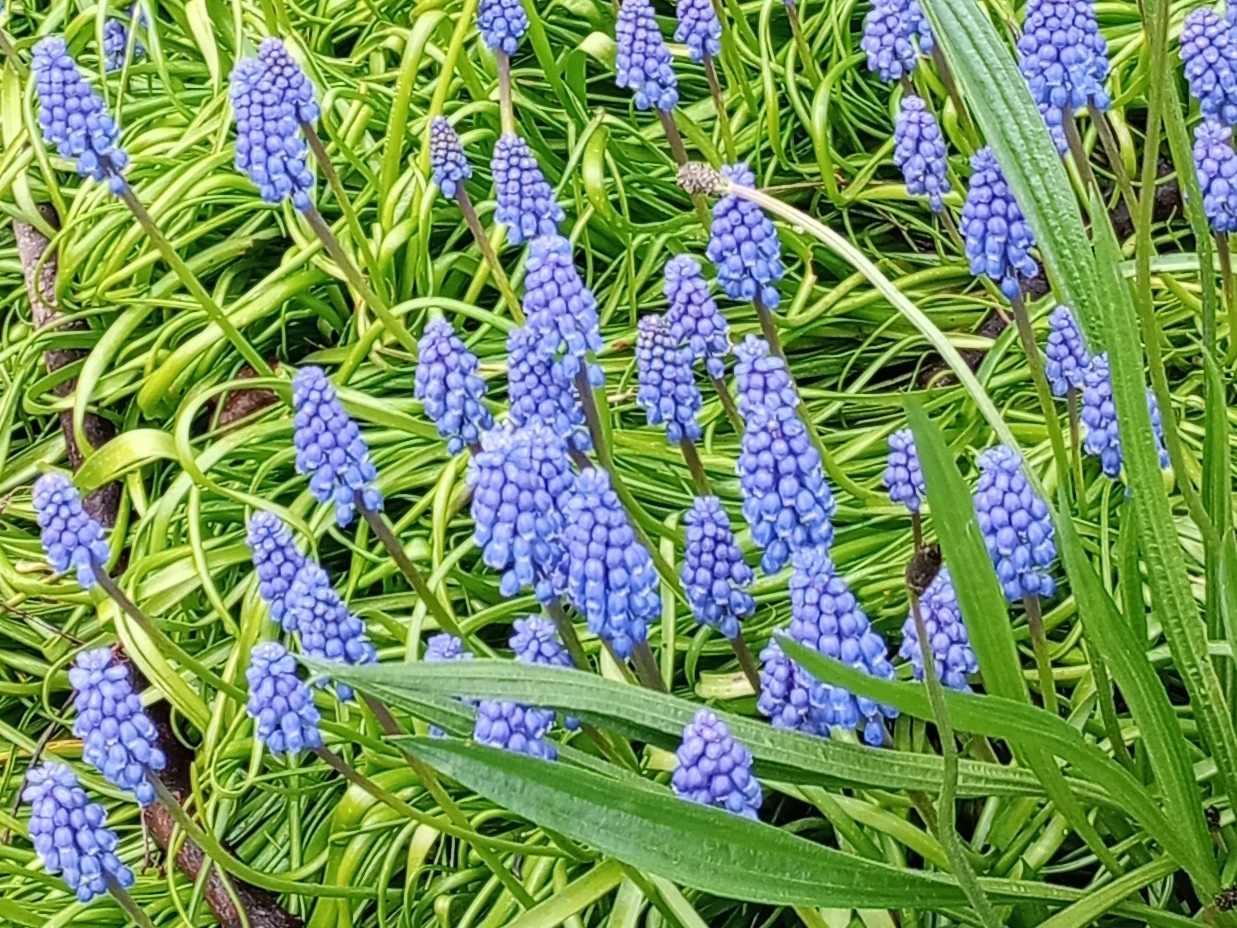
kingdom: Plantae
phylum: Tracheophyta
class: Liliopsida
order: Asparagales
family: Asparagaceae
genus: Muscari
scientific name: Muscari armeniacum
